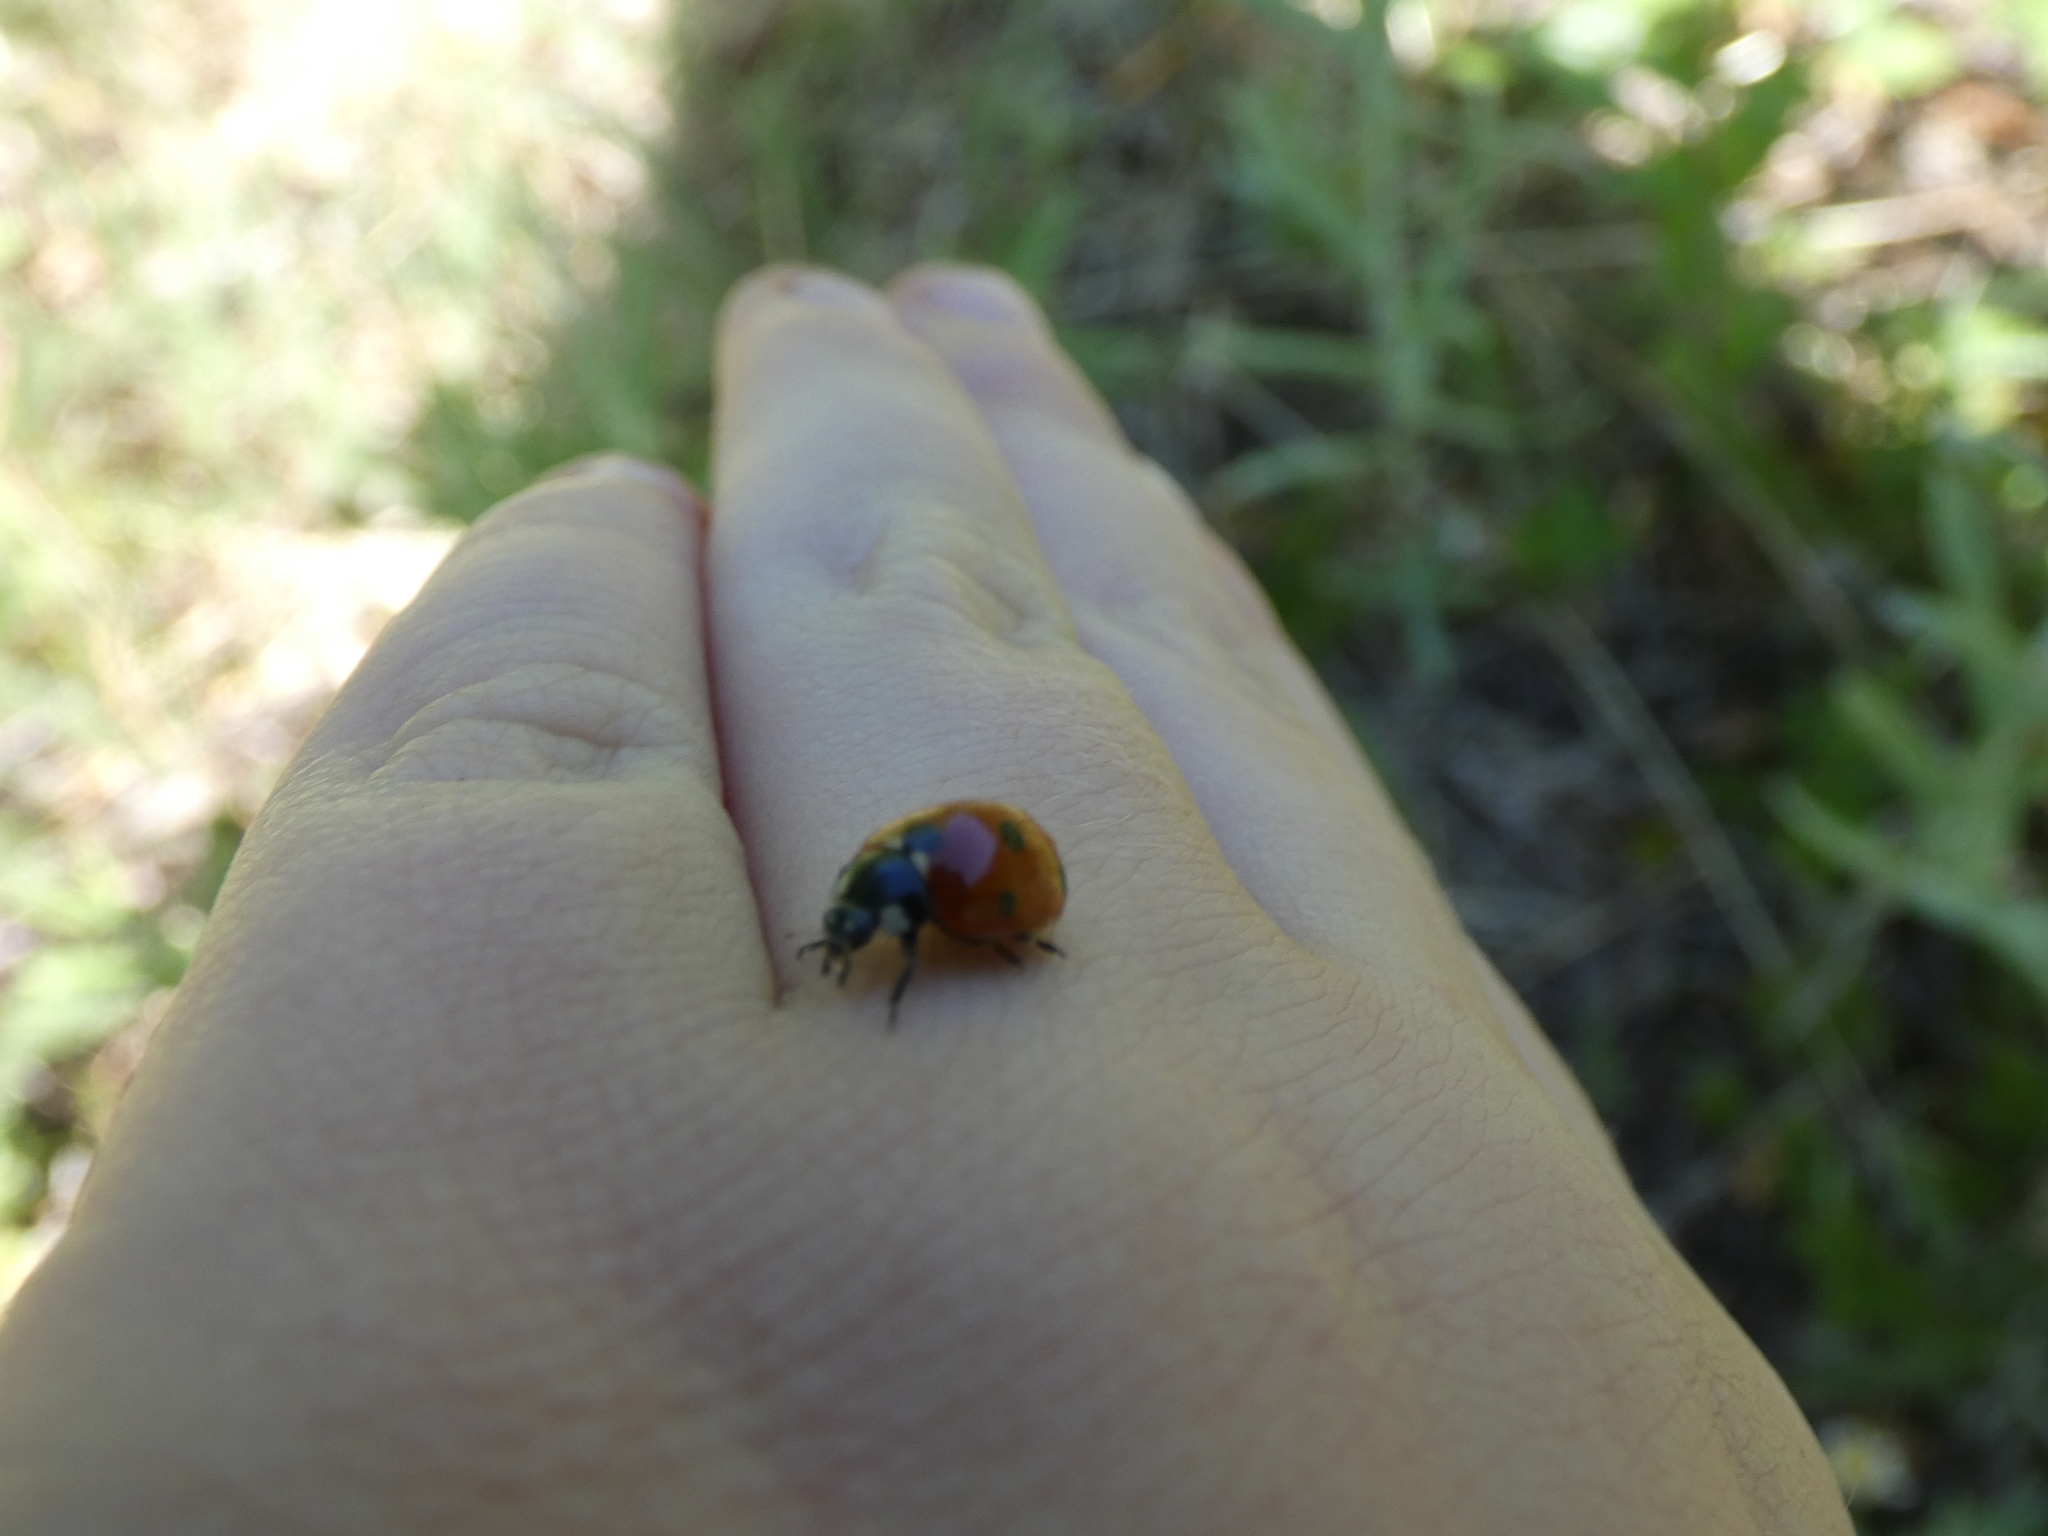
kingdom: Animalia
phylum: Arthropoda
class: Insecta
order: Coleoptera
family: Coccinellidae
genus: Coccinella
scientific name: Coccinella septempunctata
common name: Sevenspotted lady beetle
